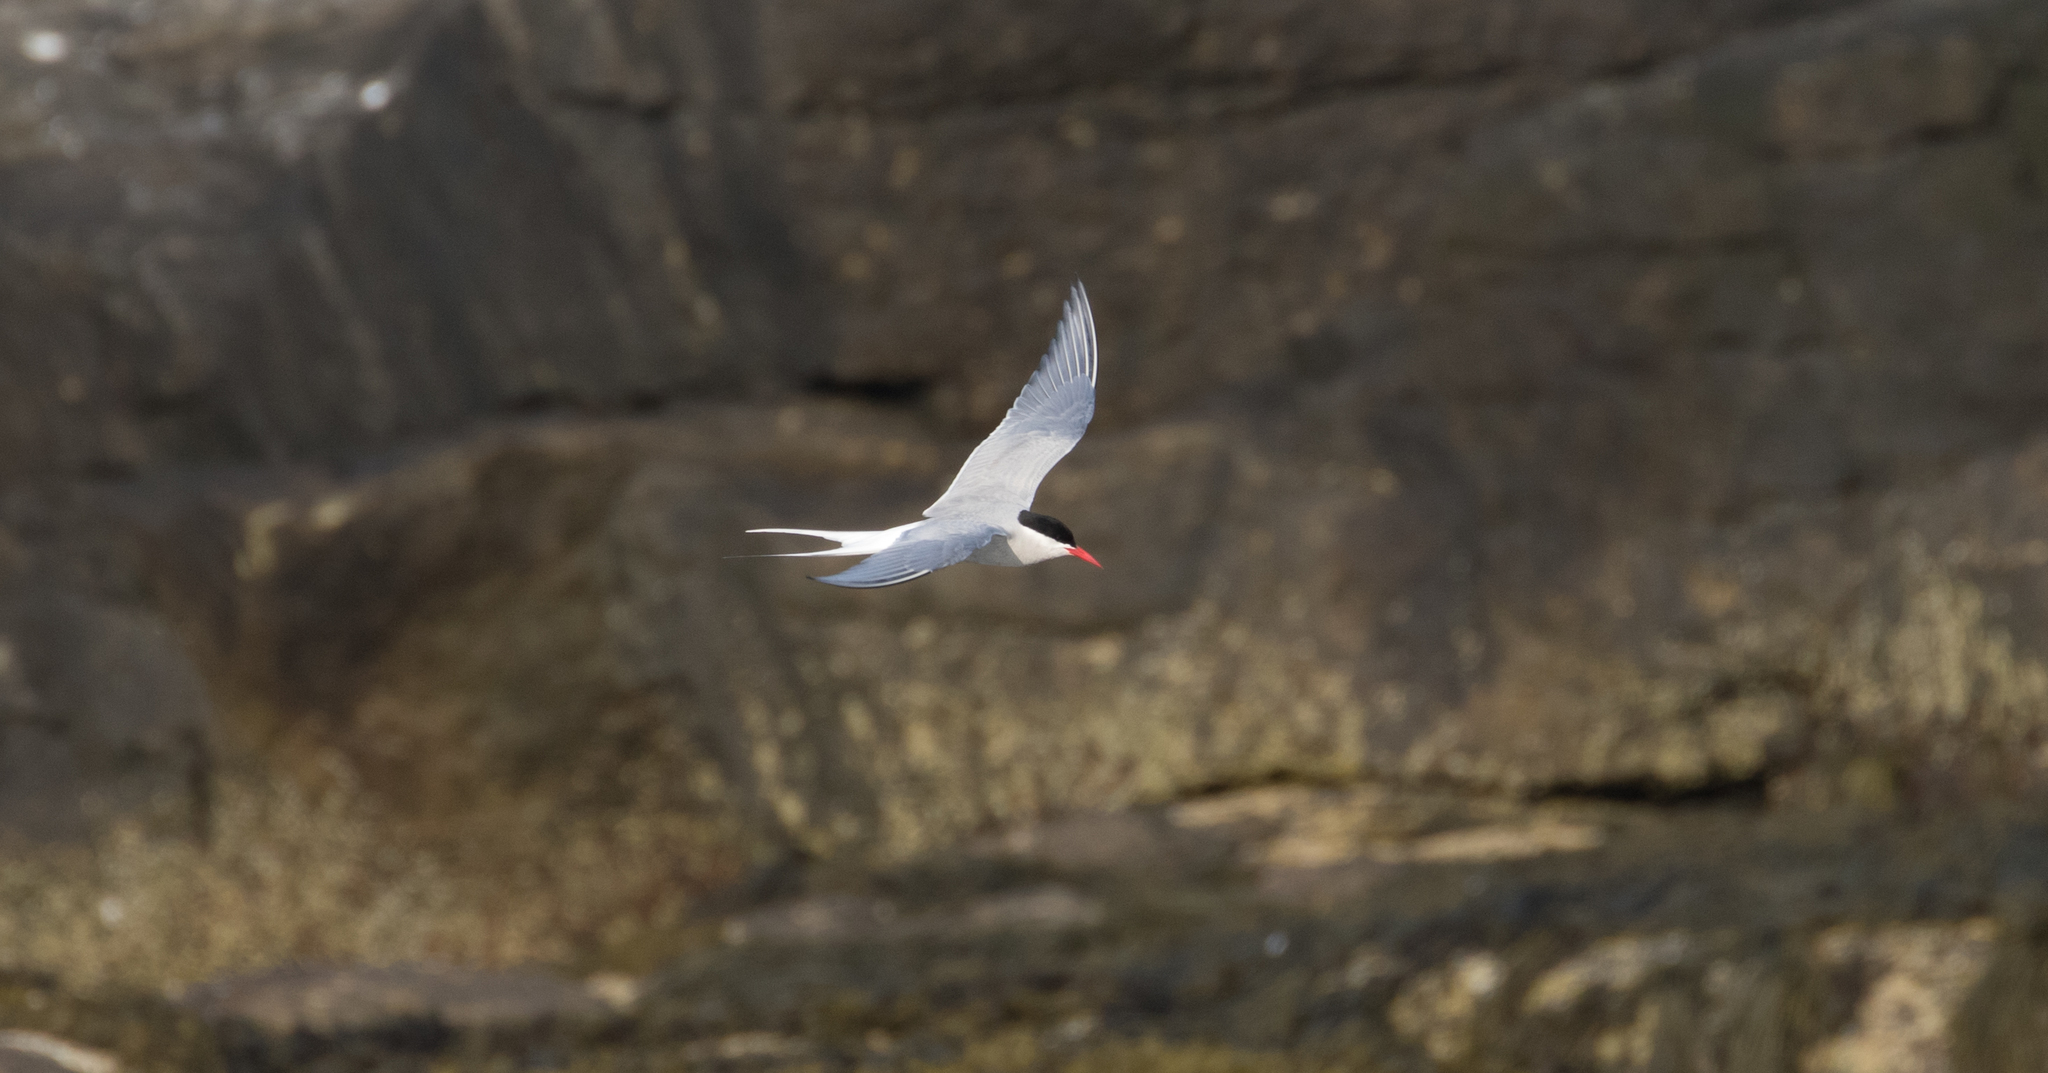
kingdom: Animalia
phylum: Chordata
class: Aves
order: Charadriiformes
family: Laridae
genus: Sterna
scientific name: Sterna paradisaea
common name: Arctic tern
